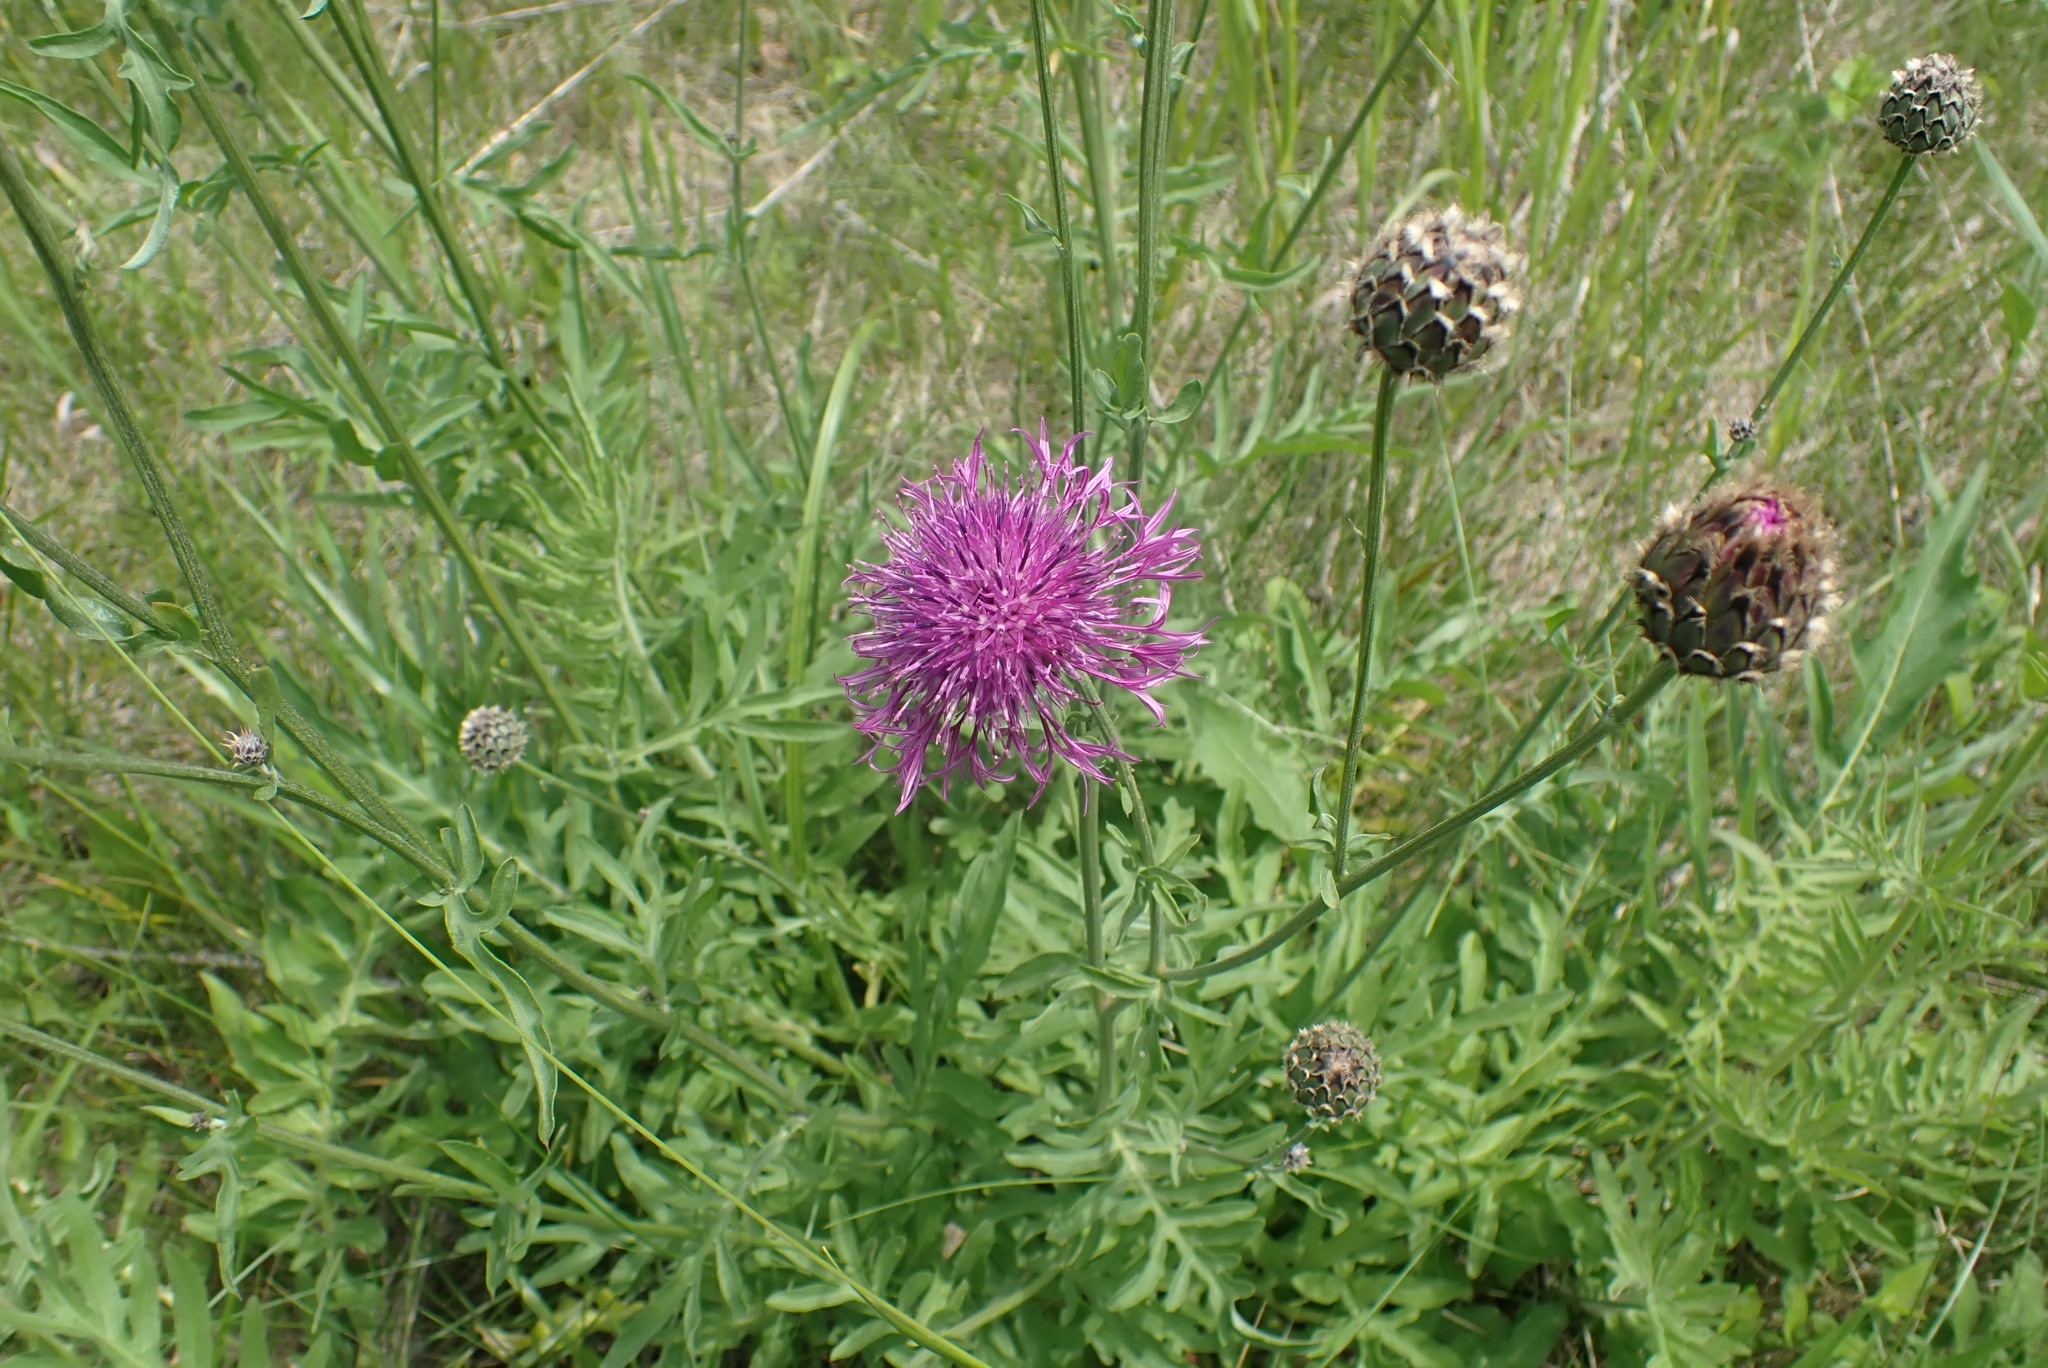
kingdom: Plantae
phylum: Tracheophyta
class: Magnoliopsida
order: Asterales
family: Asteraceae
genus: Centaurea
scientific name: Centaurea scabiosa
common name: Greater knapweed
